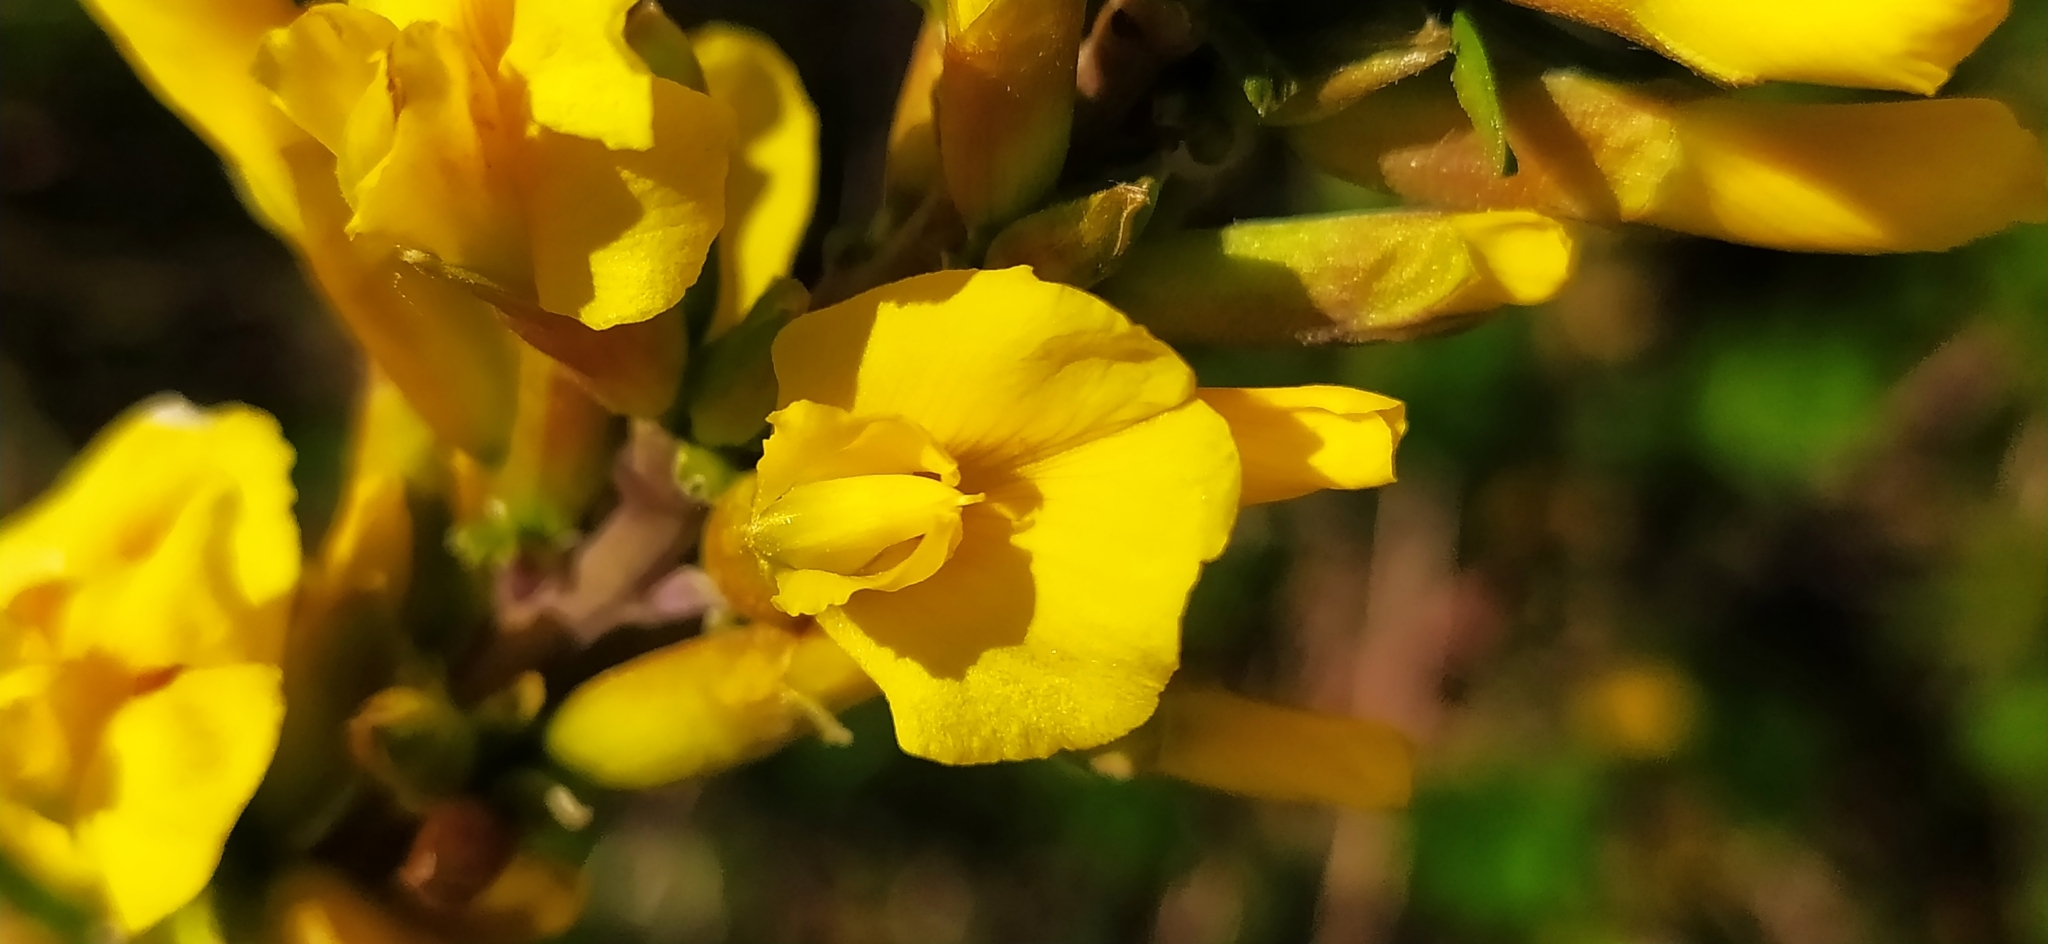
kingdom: Plantae
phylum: Tracheophyta
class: Magnoliopsida
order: Fabales
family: Fabaceae
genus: Chamaecytisus
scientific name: Chamaecytisus ruthenicus
